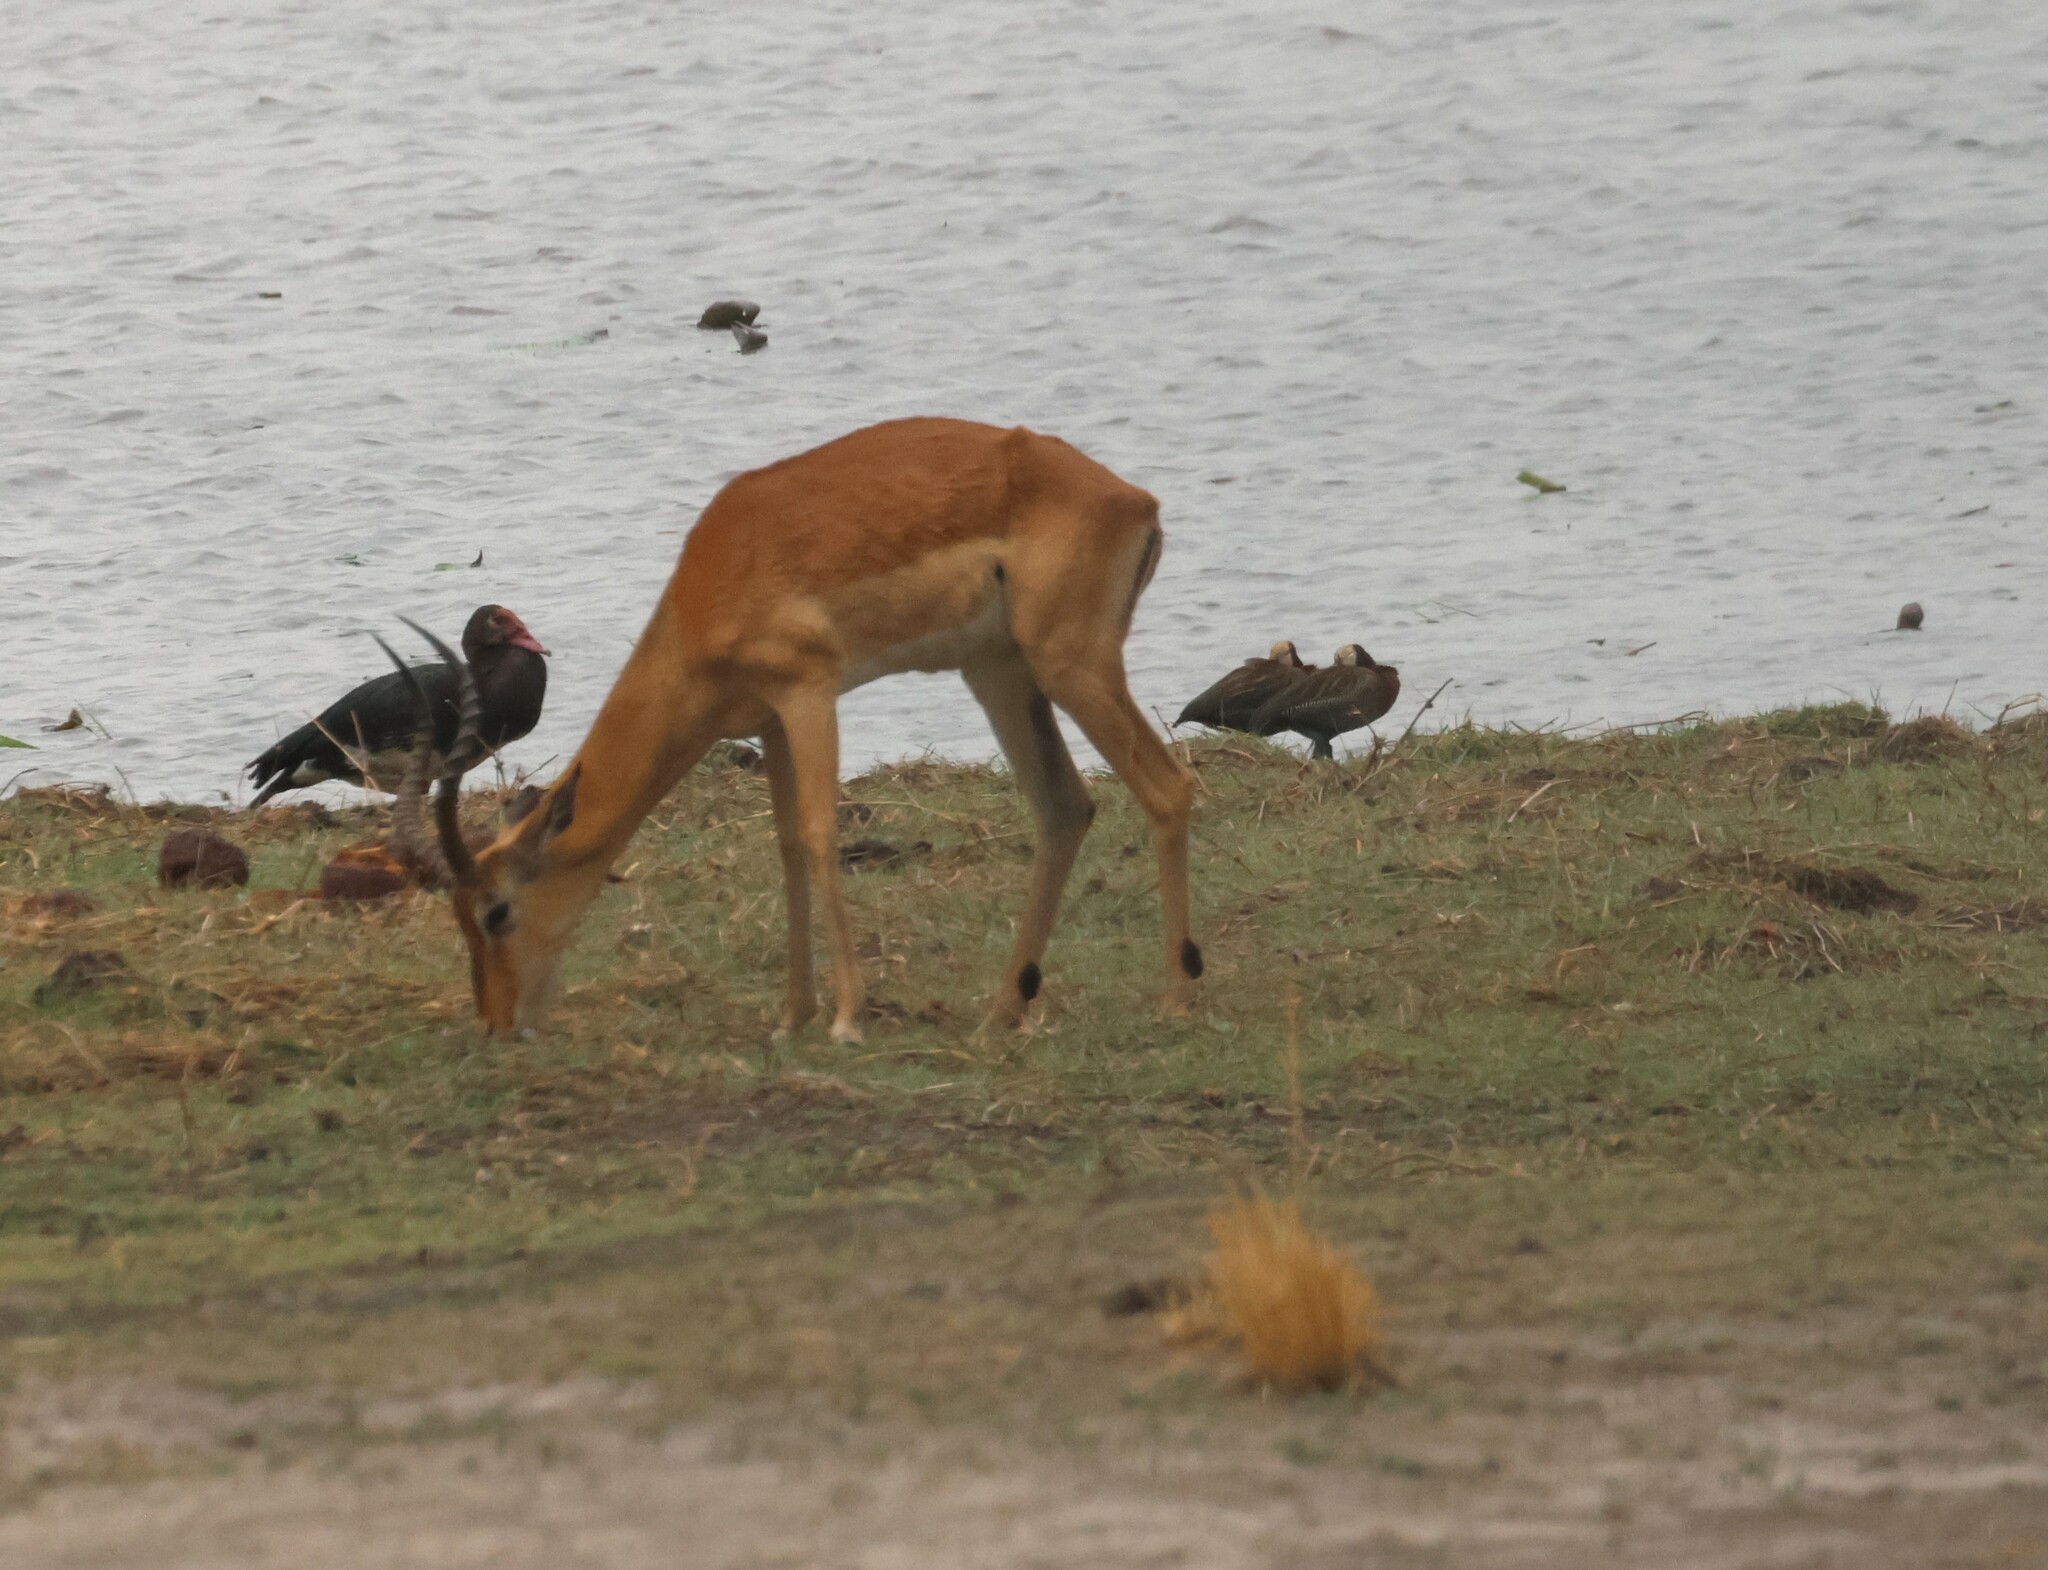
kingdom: Animalia
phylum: Chordata
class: Mammalia
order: Artiodactyla
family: Bovidae
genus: Aepyceros
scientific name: Aepyceros melampus
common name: Impala
